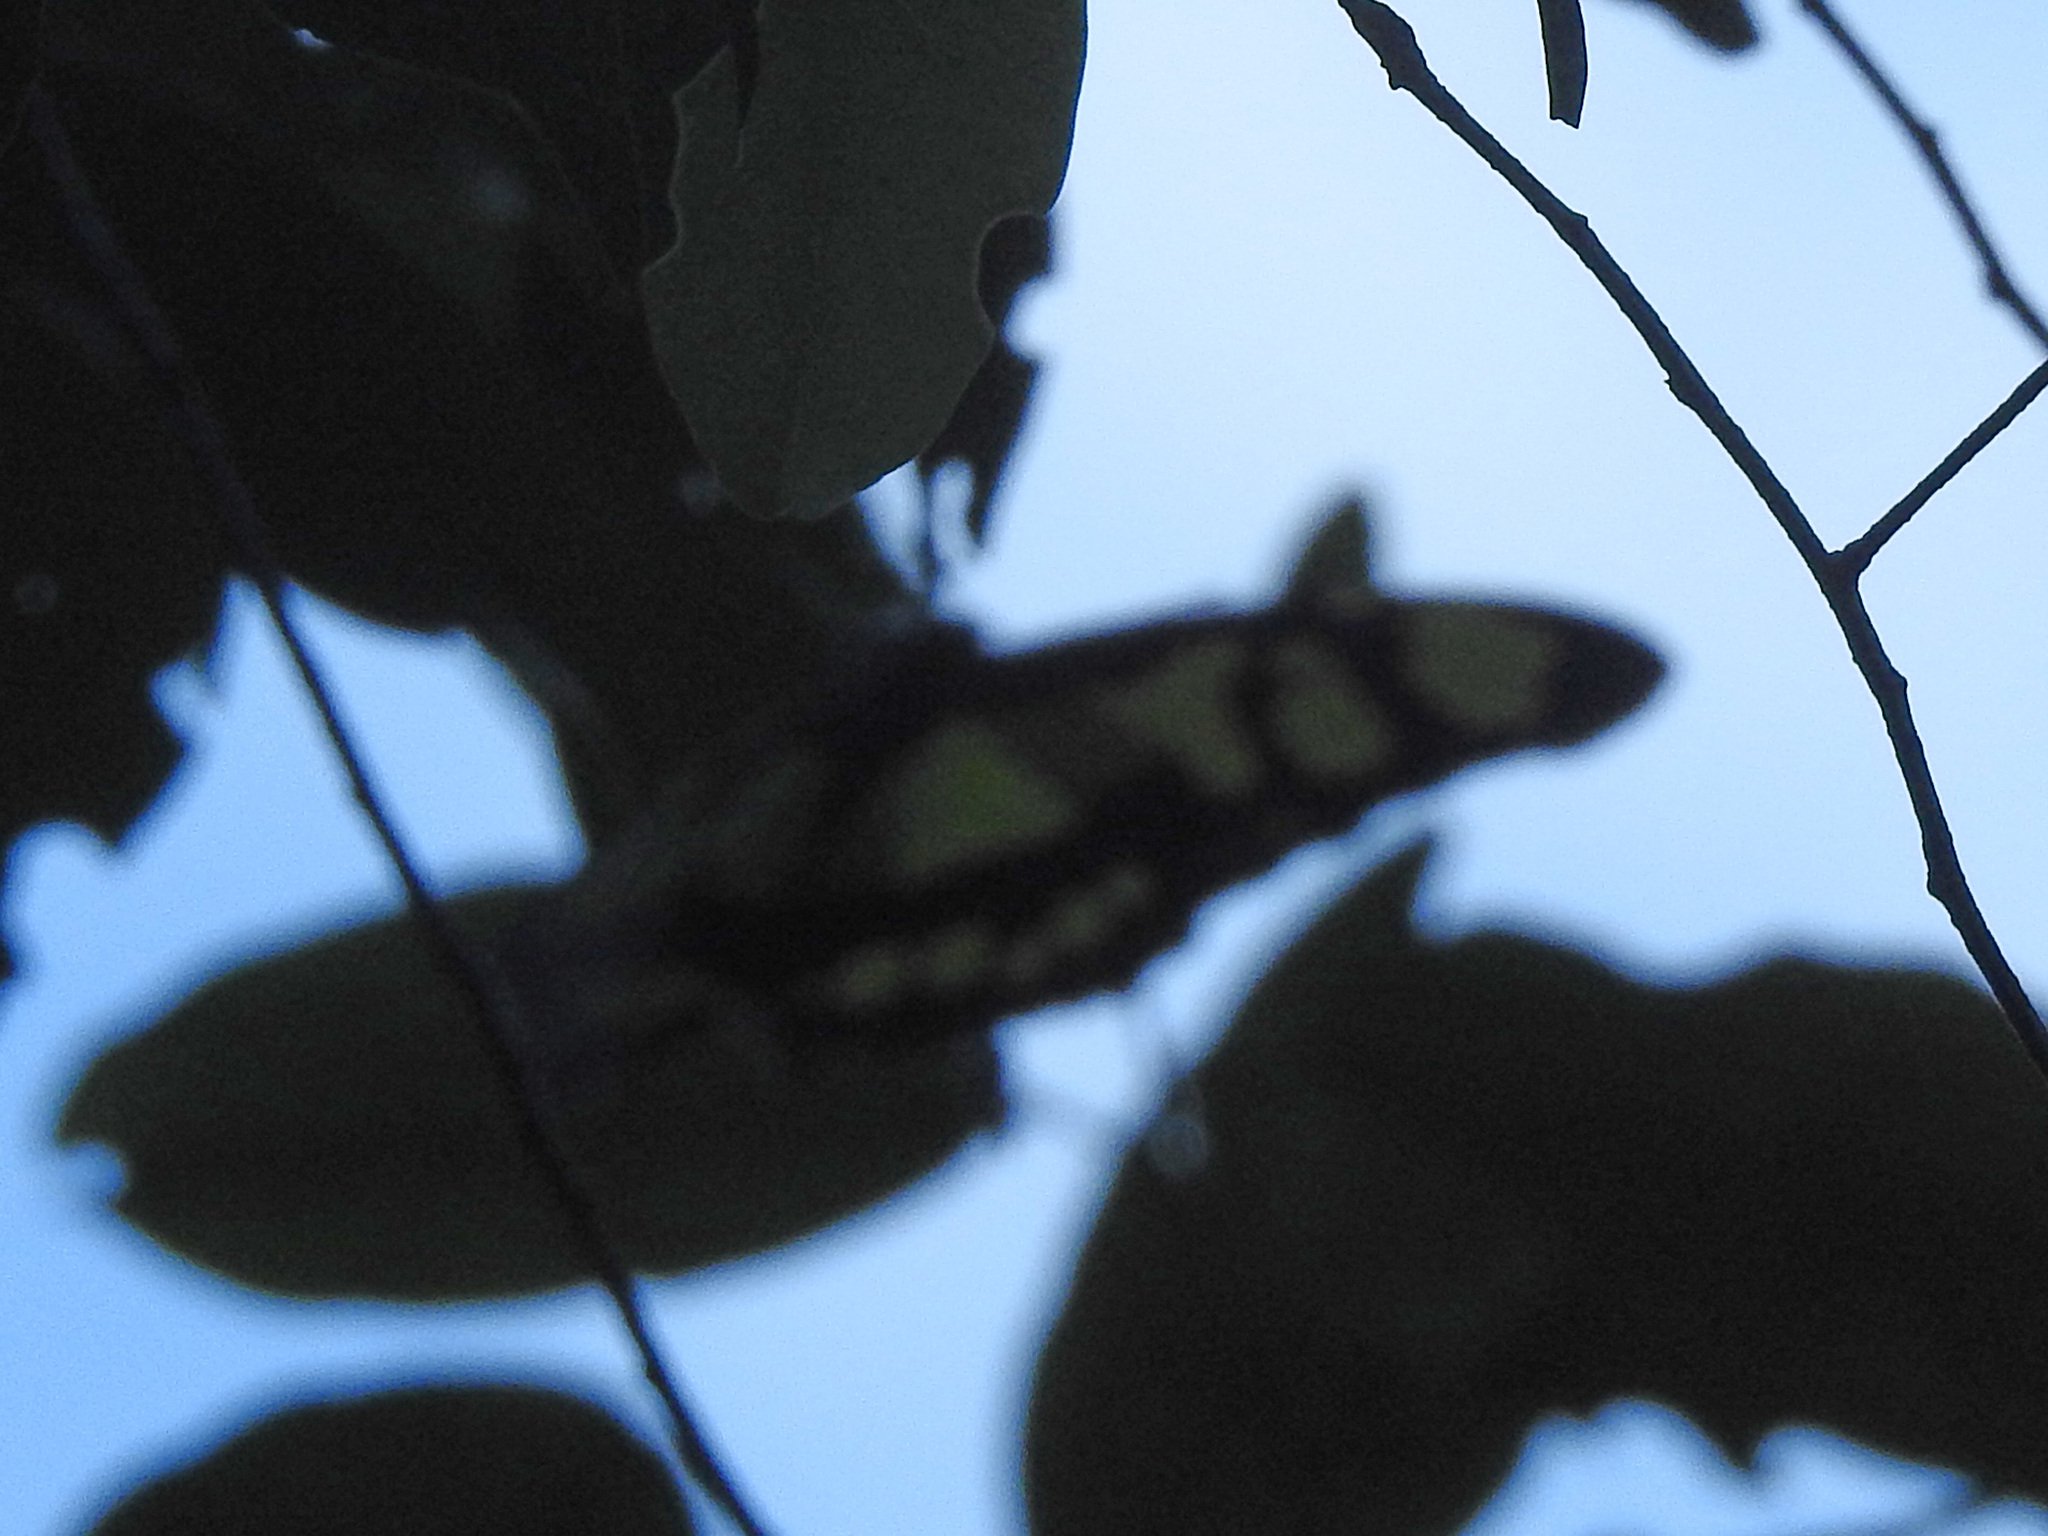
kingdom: Animalia
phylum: Arthropoda
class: Insecta
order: Lepidoptera
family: Nymphalidae
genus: Siproeta
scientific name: Siproeta stelenes
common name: Malachite
